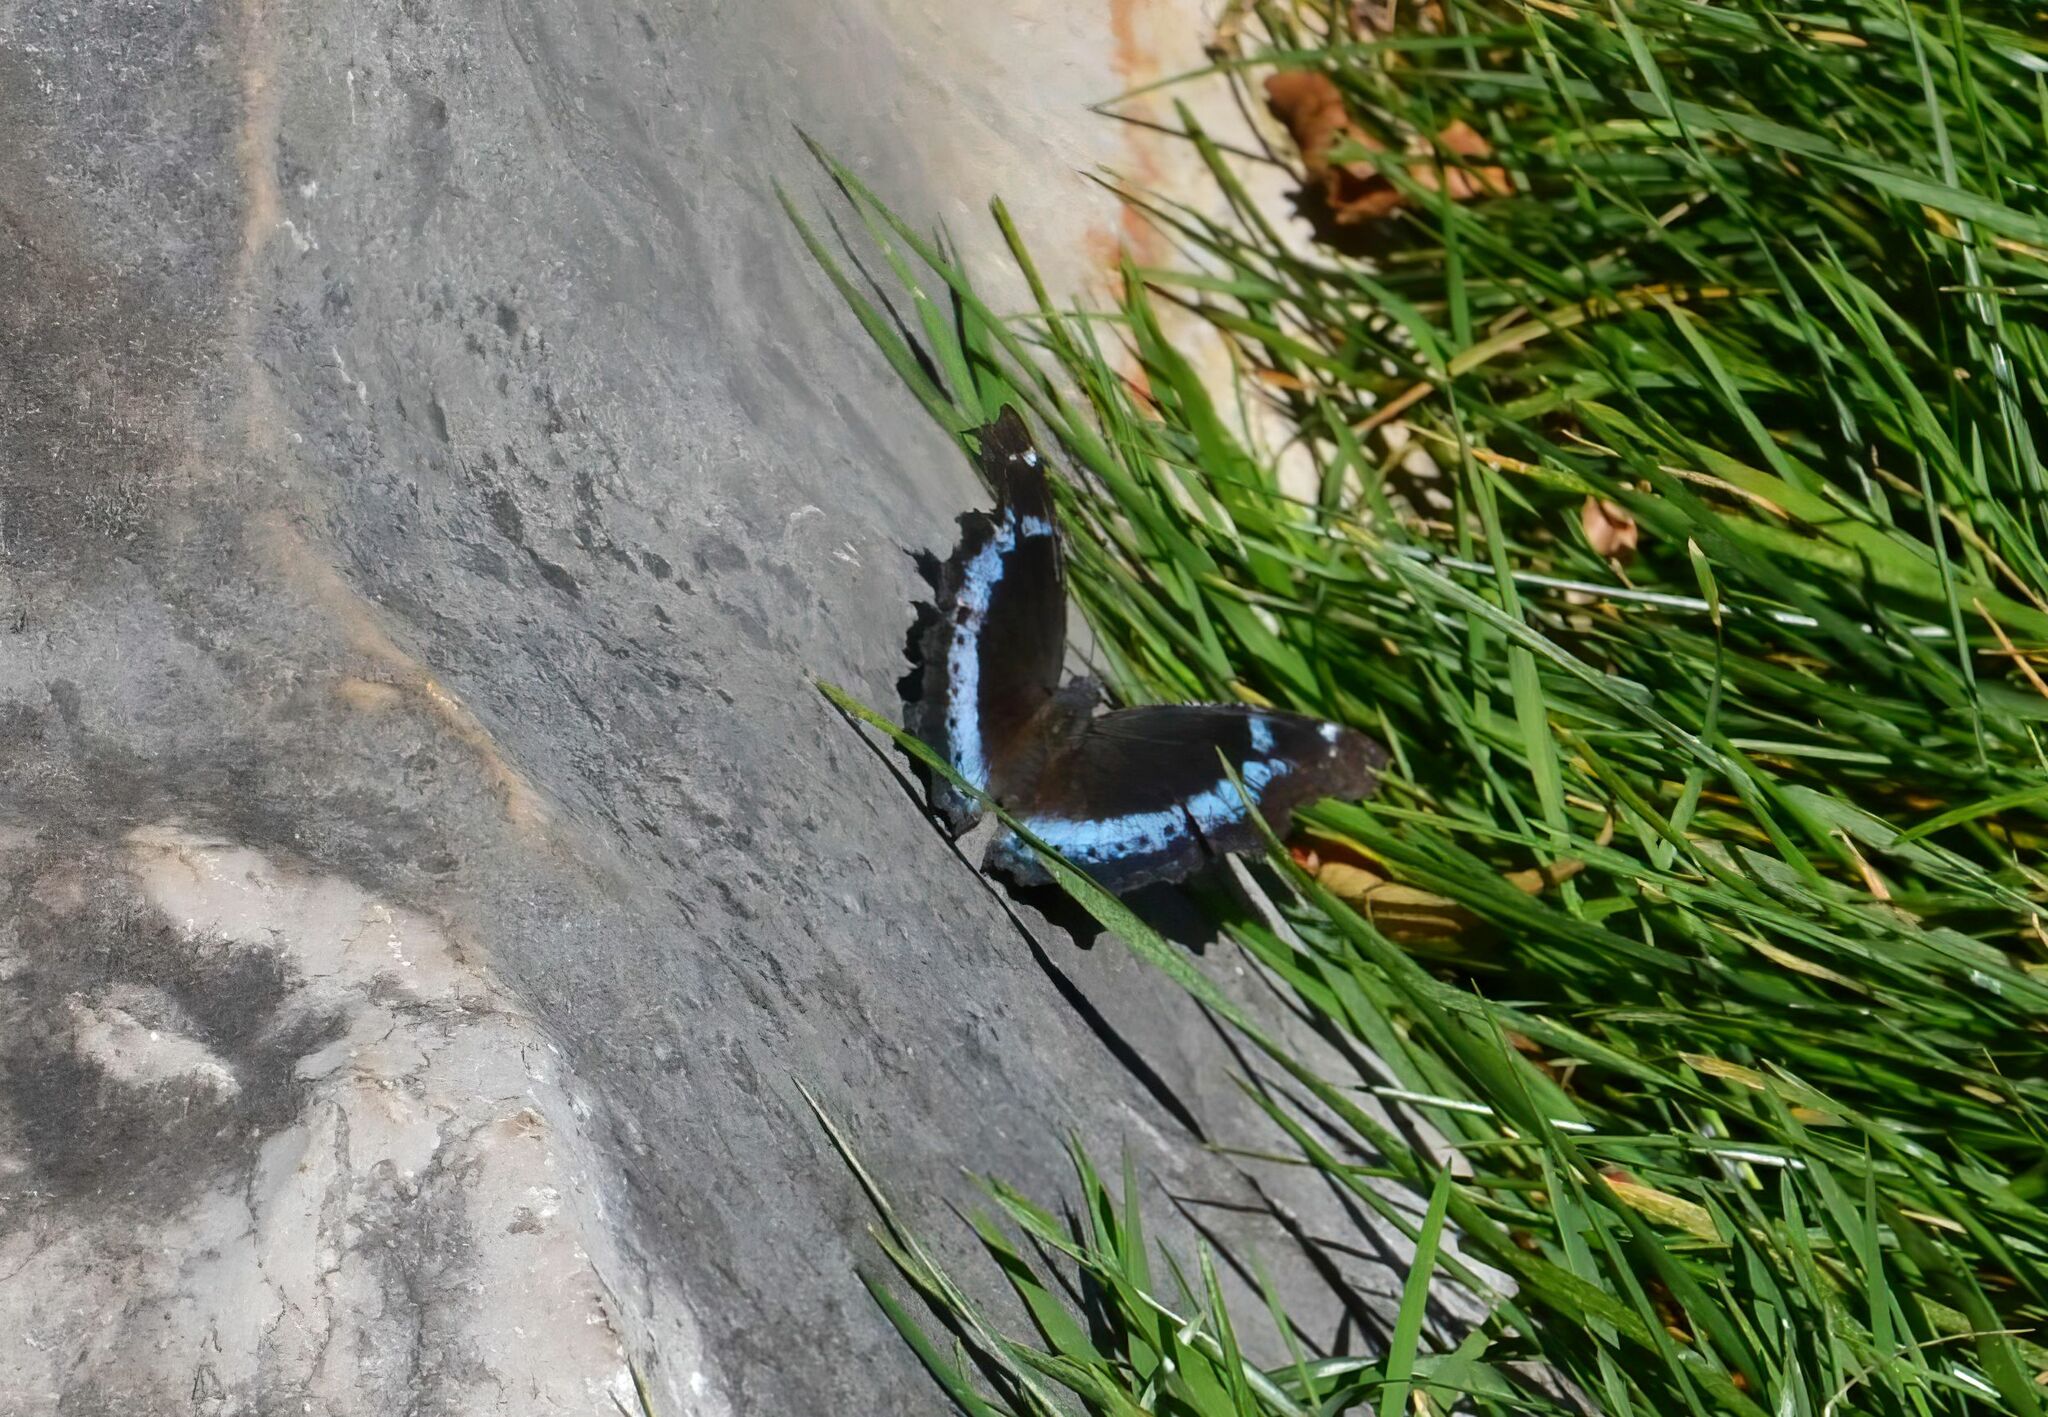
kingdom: Animalia
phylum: Arthropoda
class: Insecta
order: Lepidoptera
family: Nymphalidae
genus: Vanessa
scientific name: Vanessa Kaniska canace
